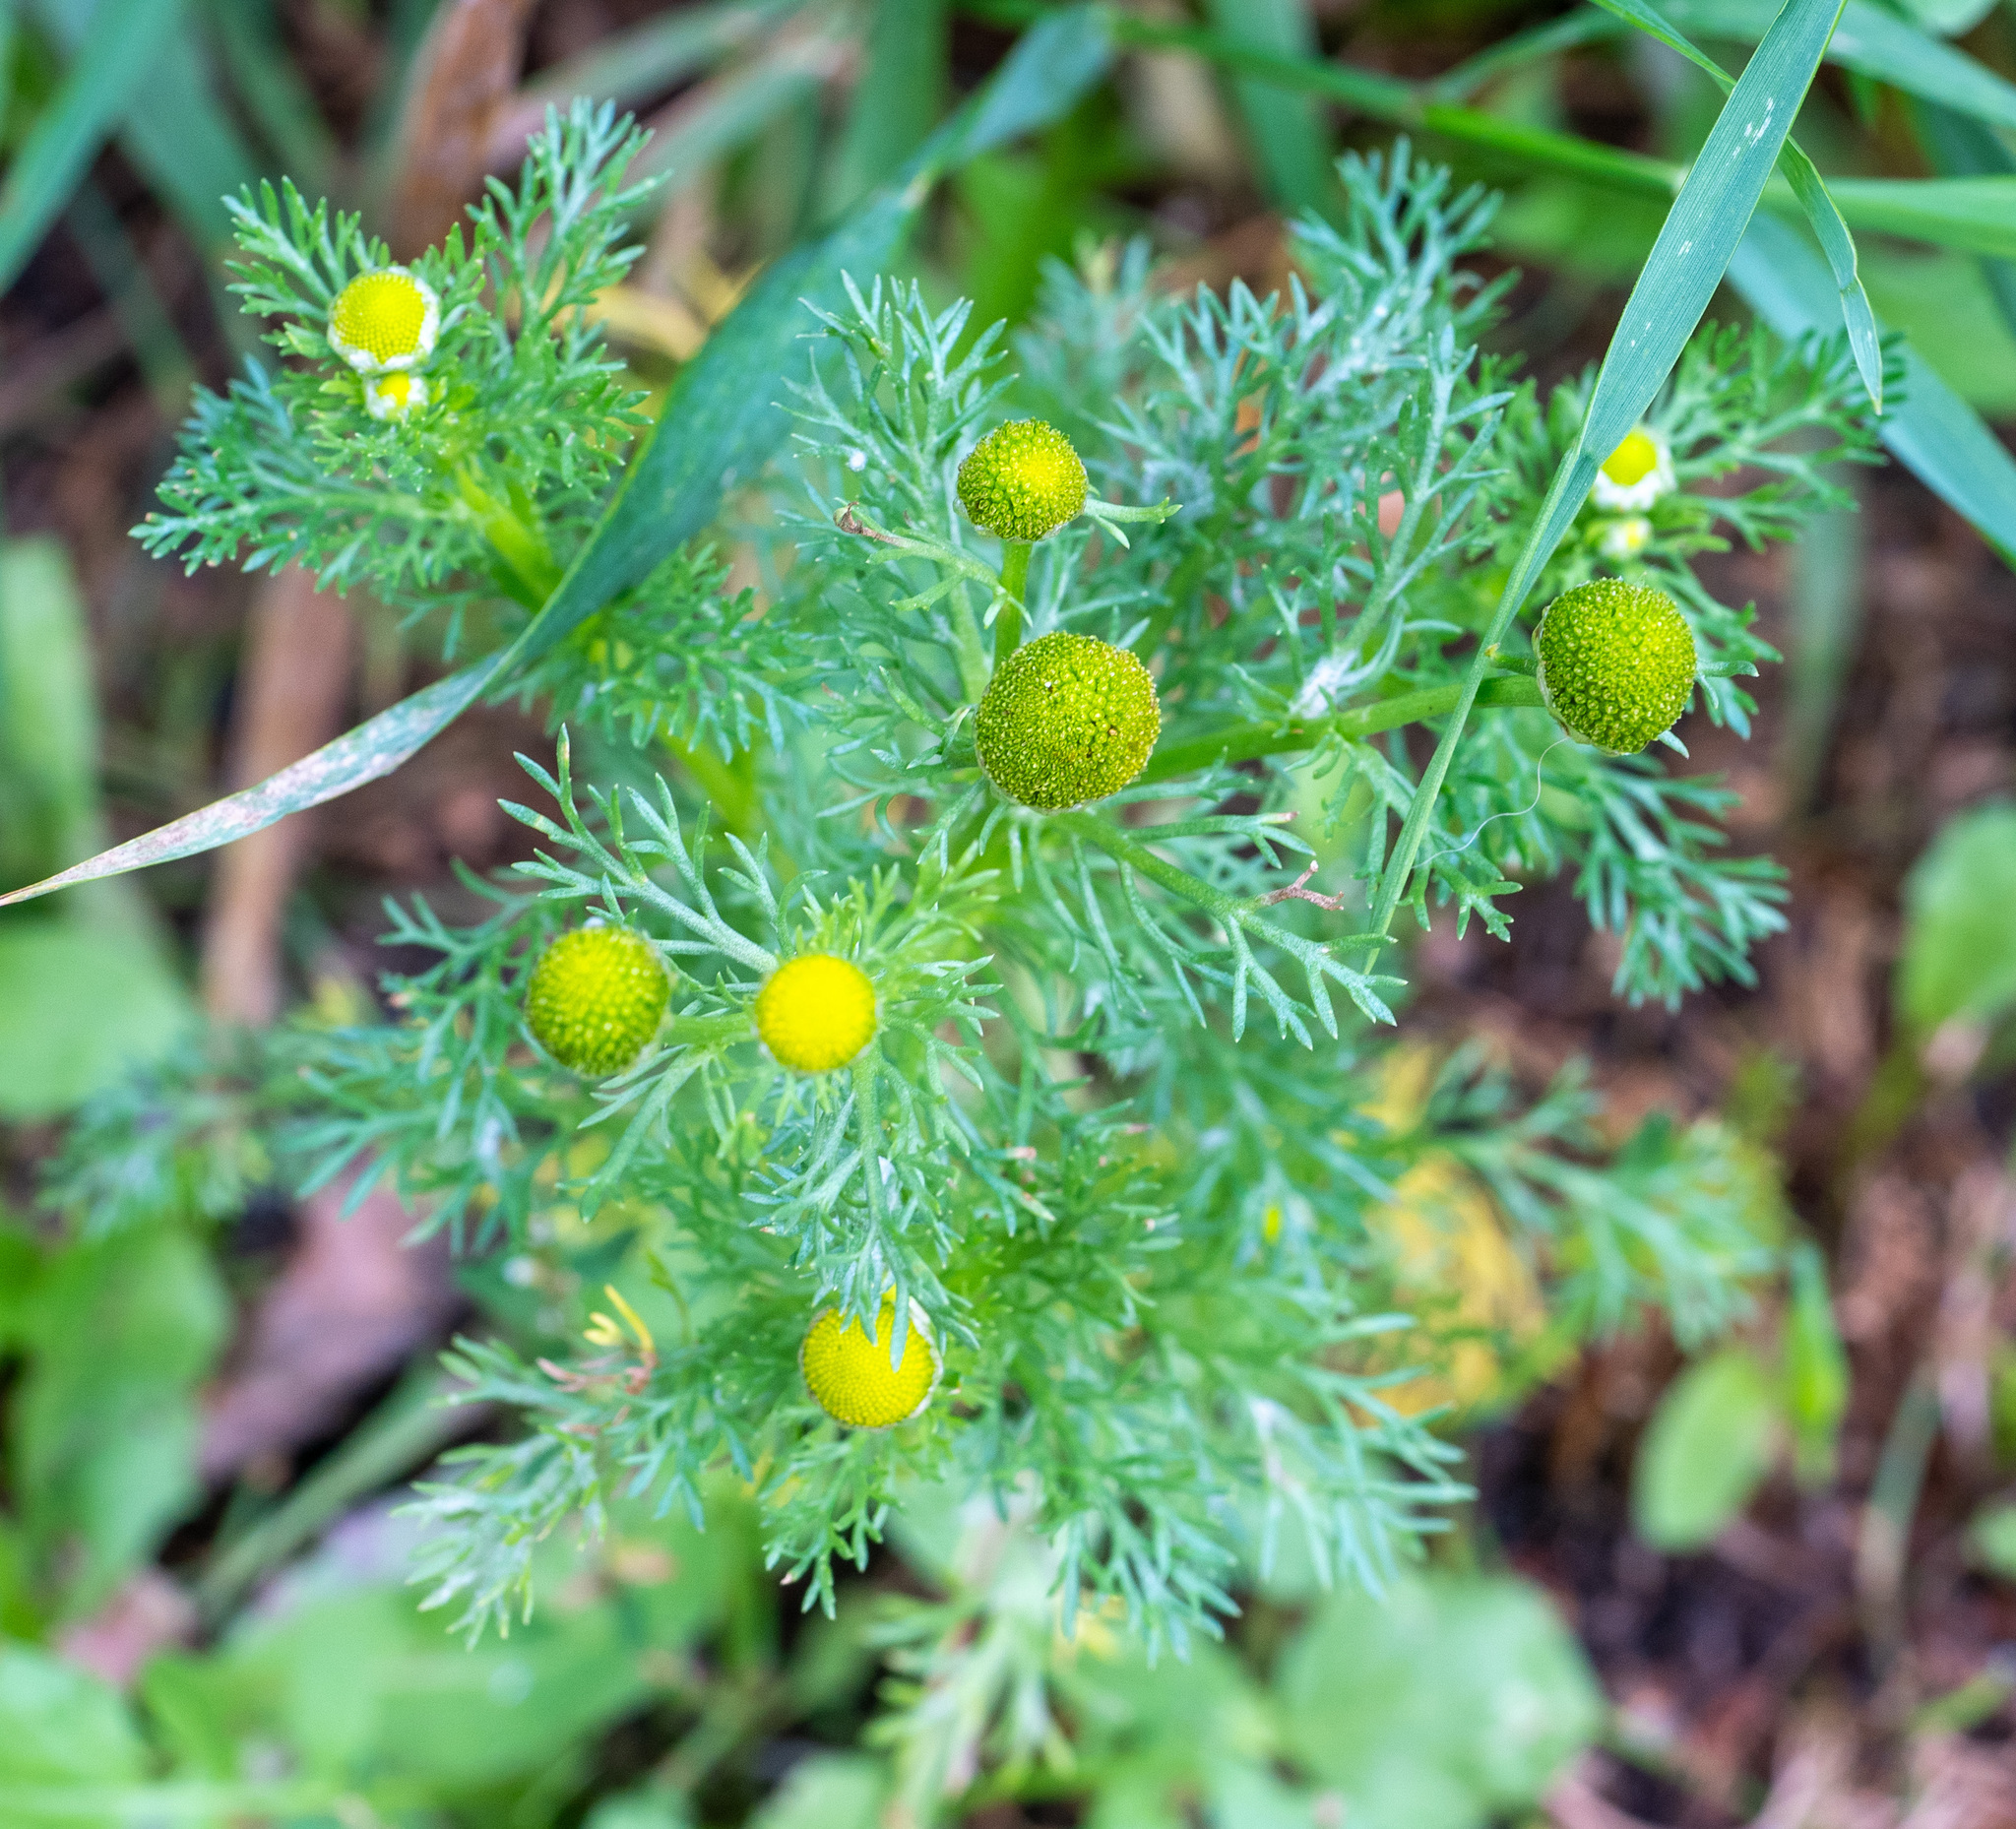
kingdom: Plantae
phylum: Tracheophyta
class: Magnoliopsida
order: Asterales
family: Asteraceae
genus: Matricaria
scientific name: Matricaria discoidea
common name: Disc mayweed
